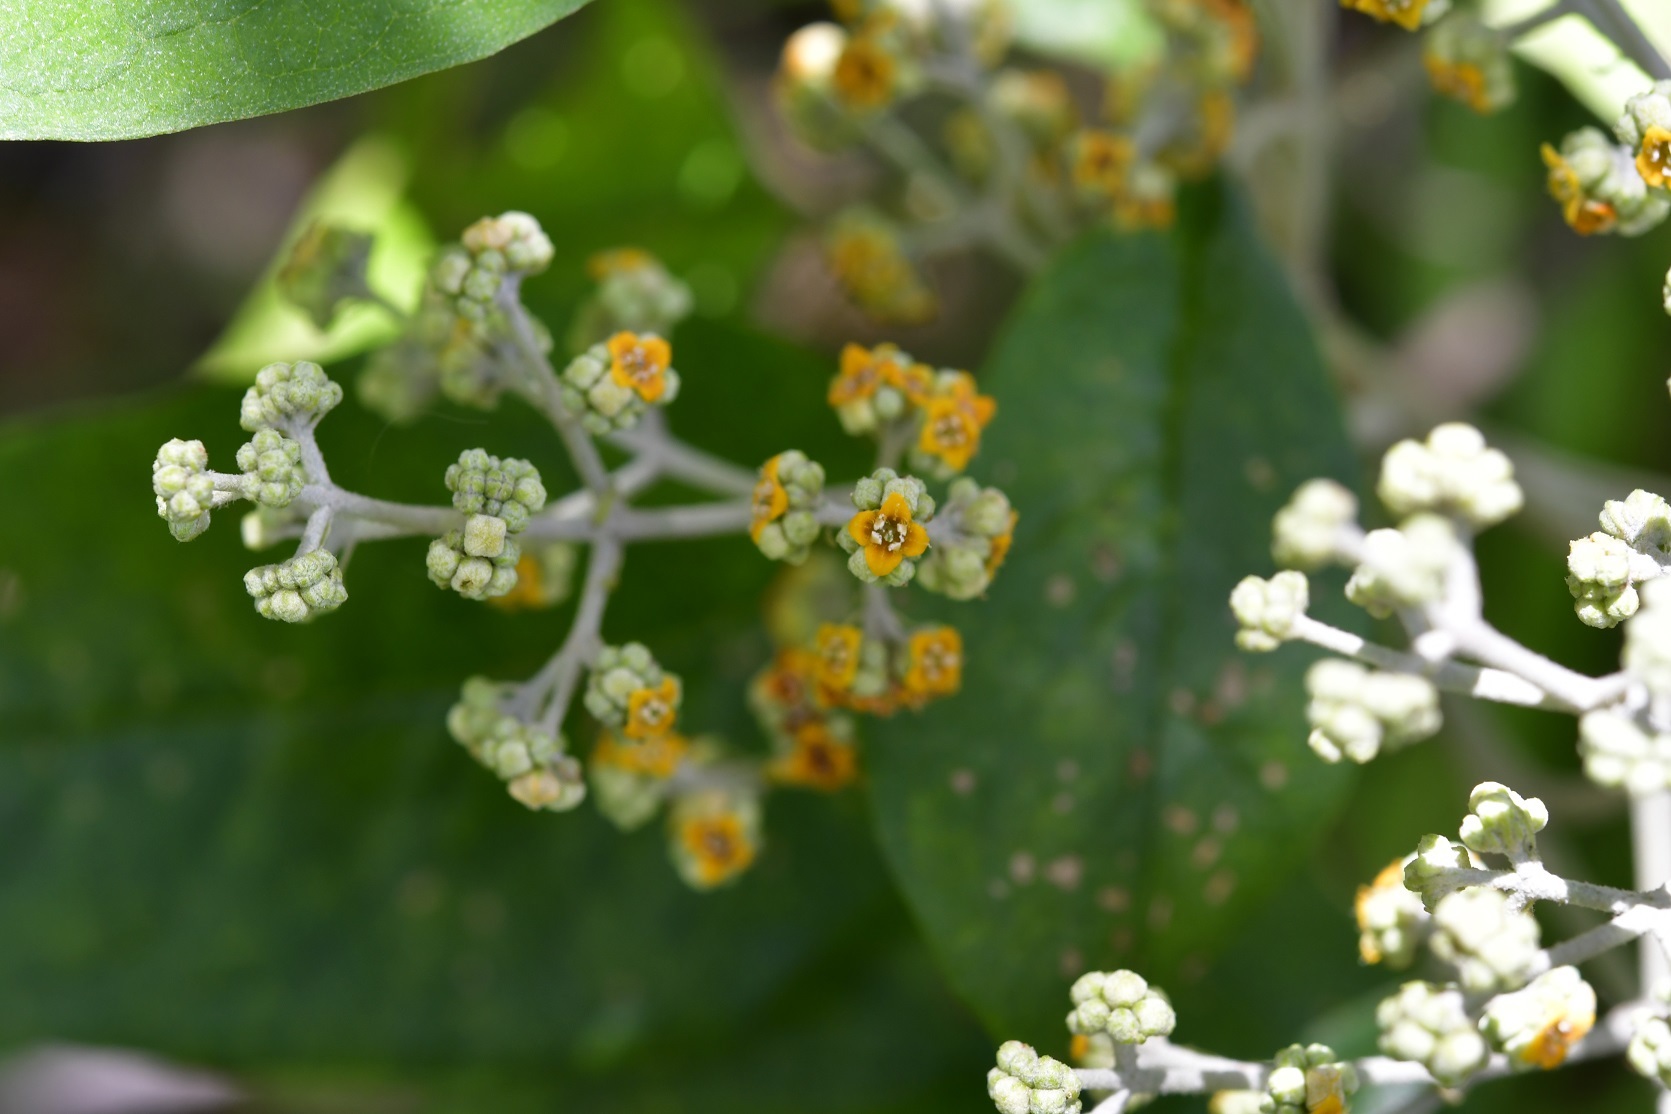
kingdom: Plantae
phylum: Tracheophyta
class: Magnoliopsida
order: Lamiales
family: Scrophulariaceae
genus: Buddleja
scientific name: Buddleja cordata
